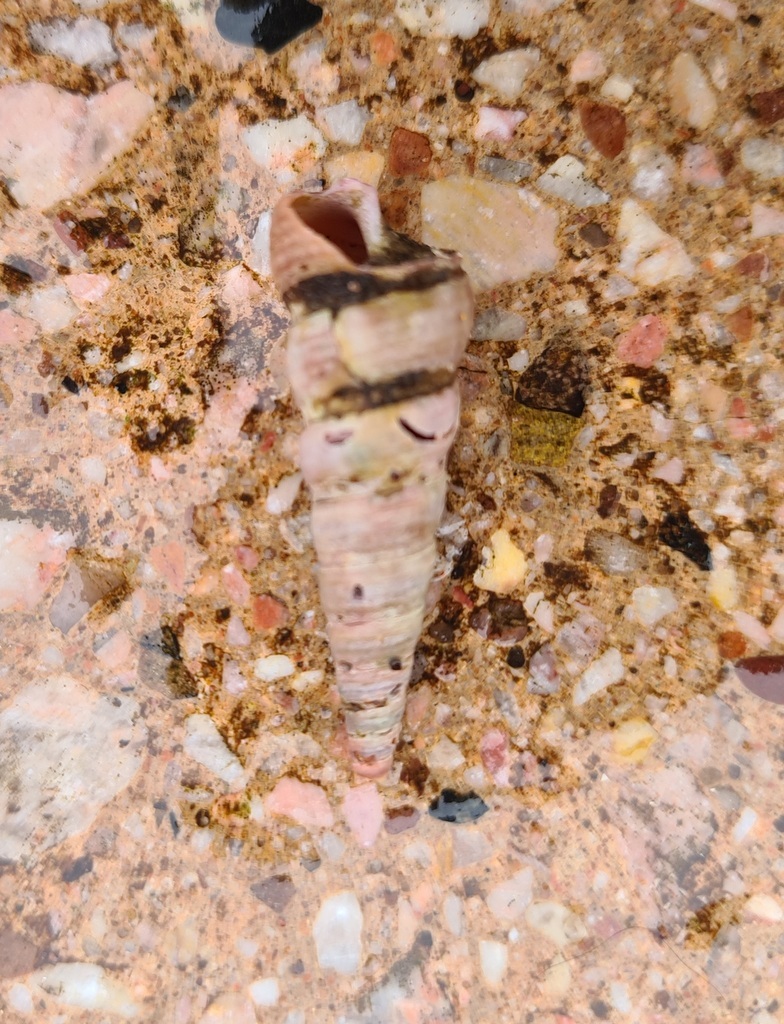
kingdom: Animalia
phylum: Mollusca
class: Gastropoda
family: Turritellidae
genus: Turritellinella
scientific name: Turritellinella tricarinata
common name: Auger shell
